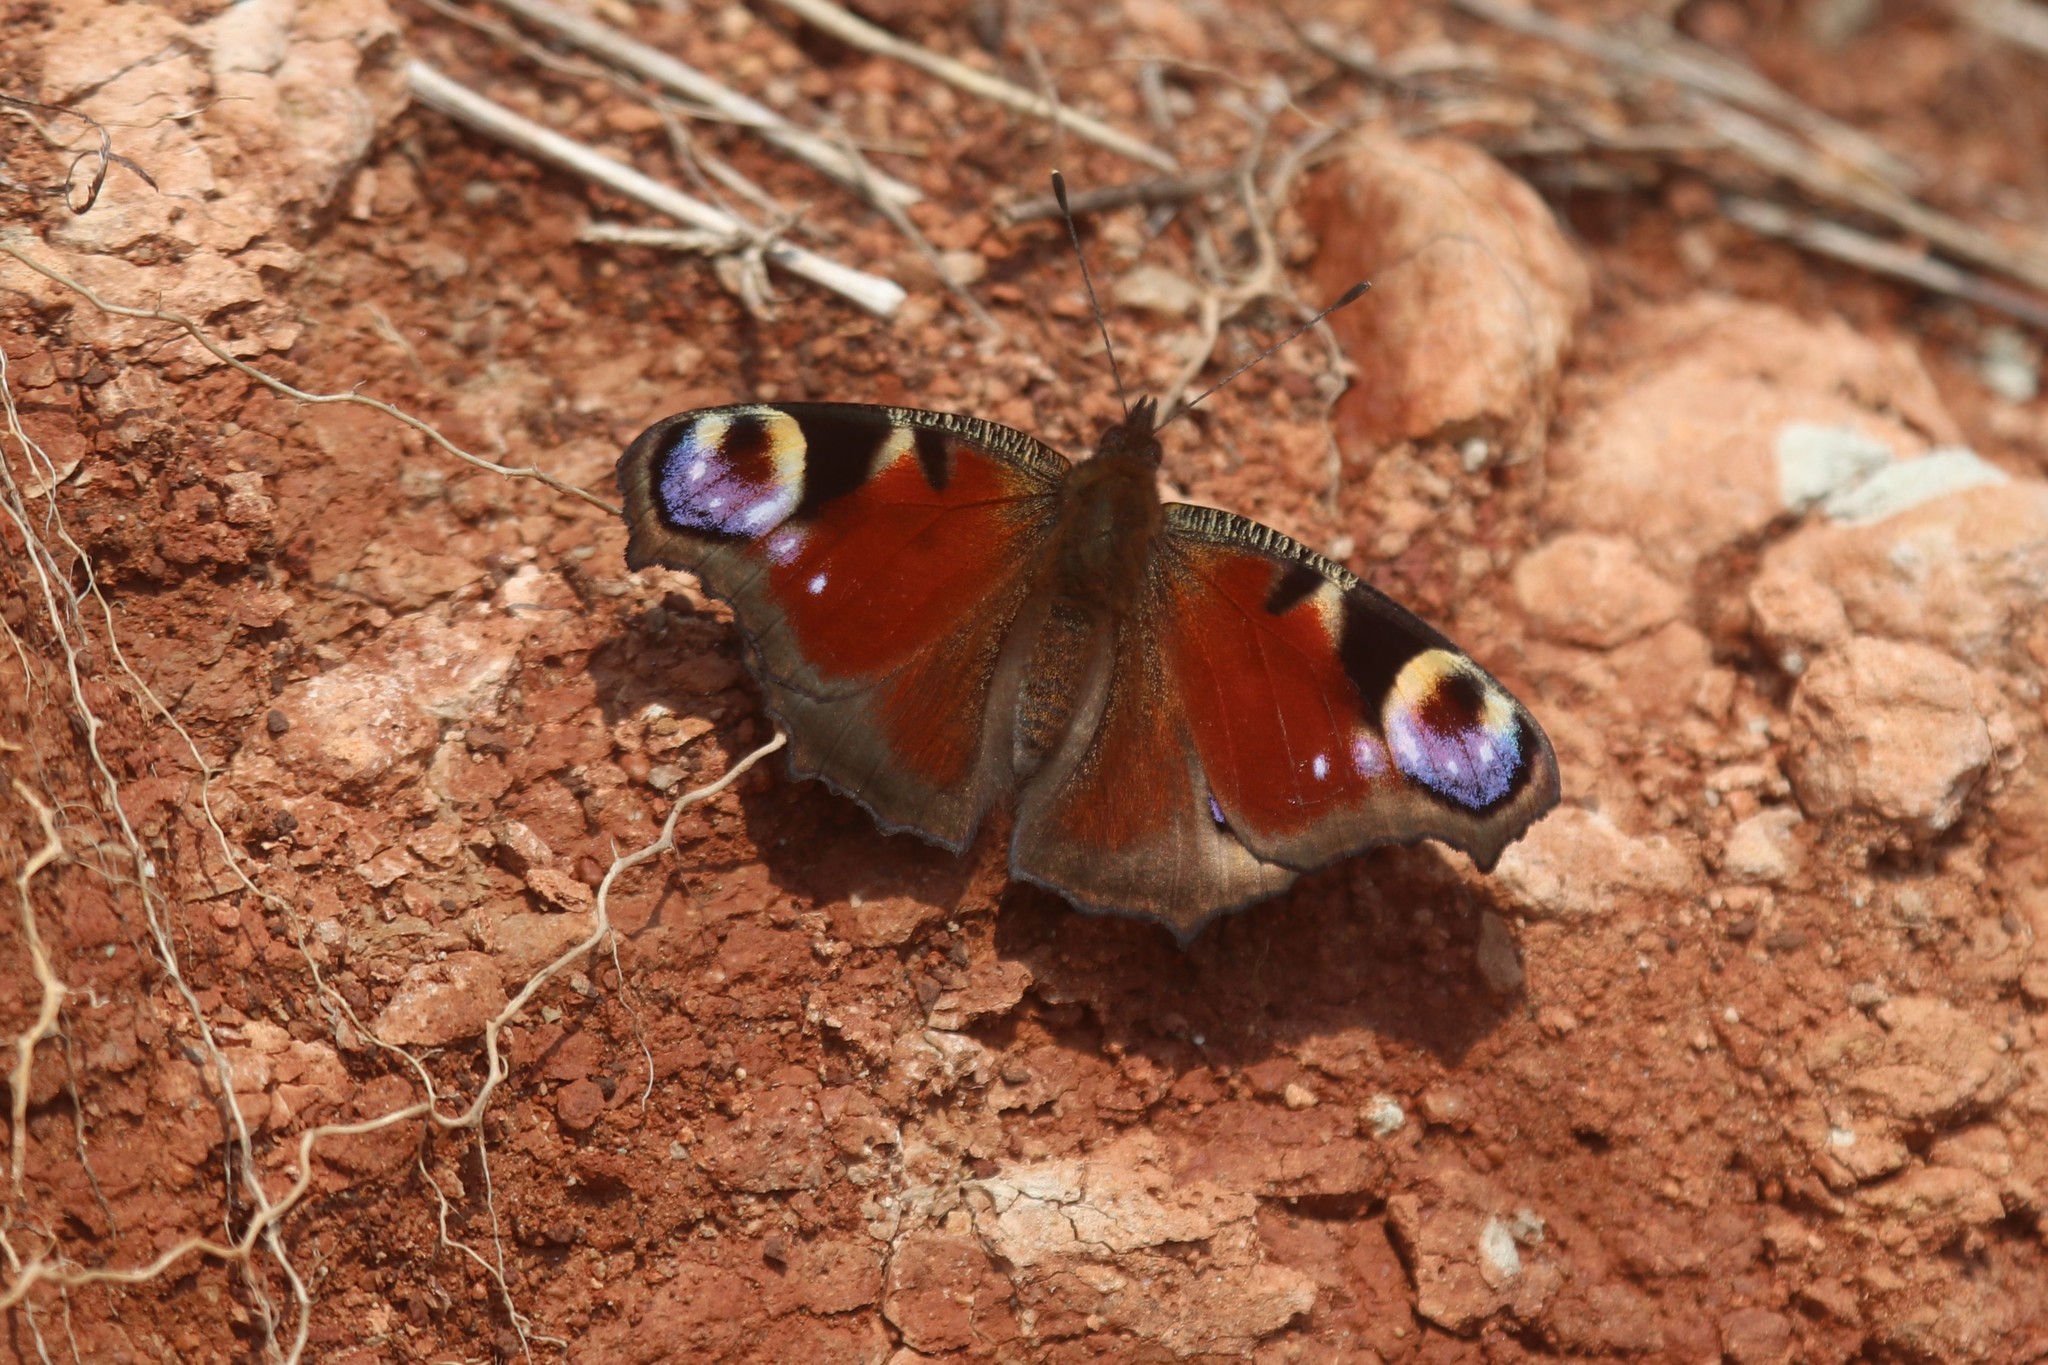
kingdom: Animalia
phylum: Arthropoda
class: Insecta
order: Lepidoptera
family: Nymphalidae
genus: Aglais
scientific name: Aglais io
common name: Peacock
